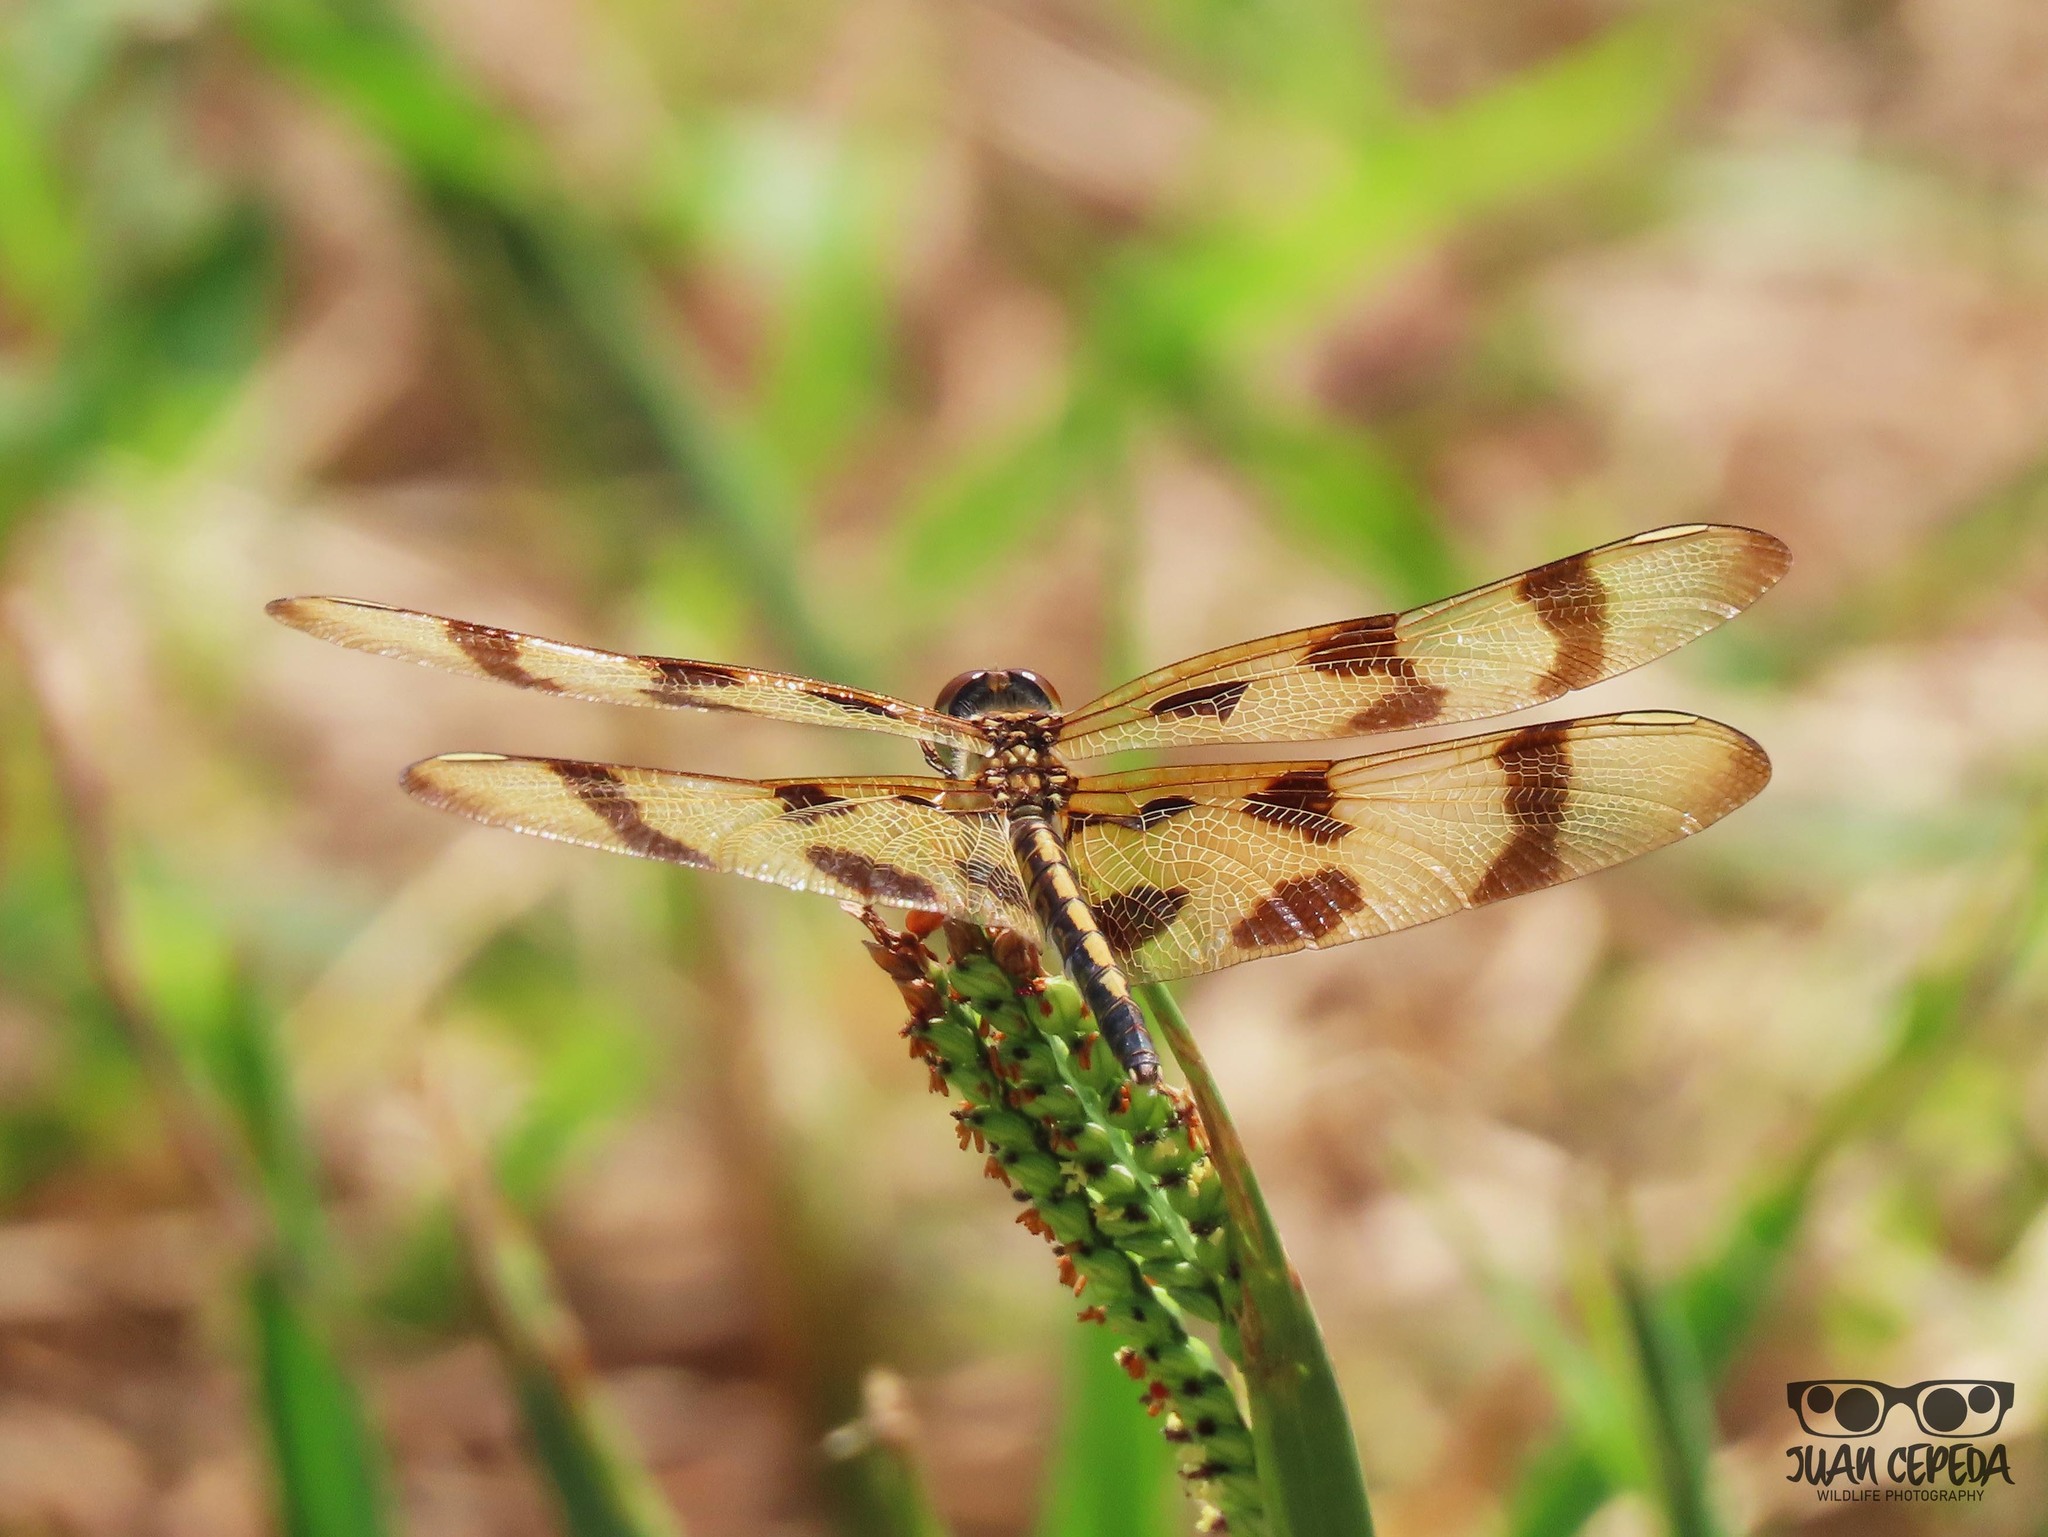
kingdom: Animalia
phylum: Arthropoda
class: Insecta
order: Odonata
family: Libellulidae
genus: Celithemis
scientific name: Celithemis eponina
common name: Halloween pennant
